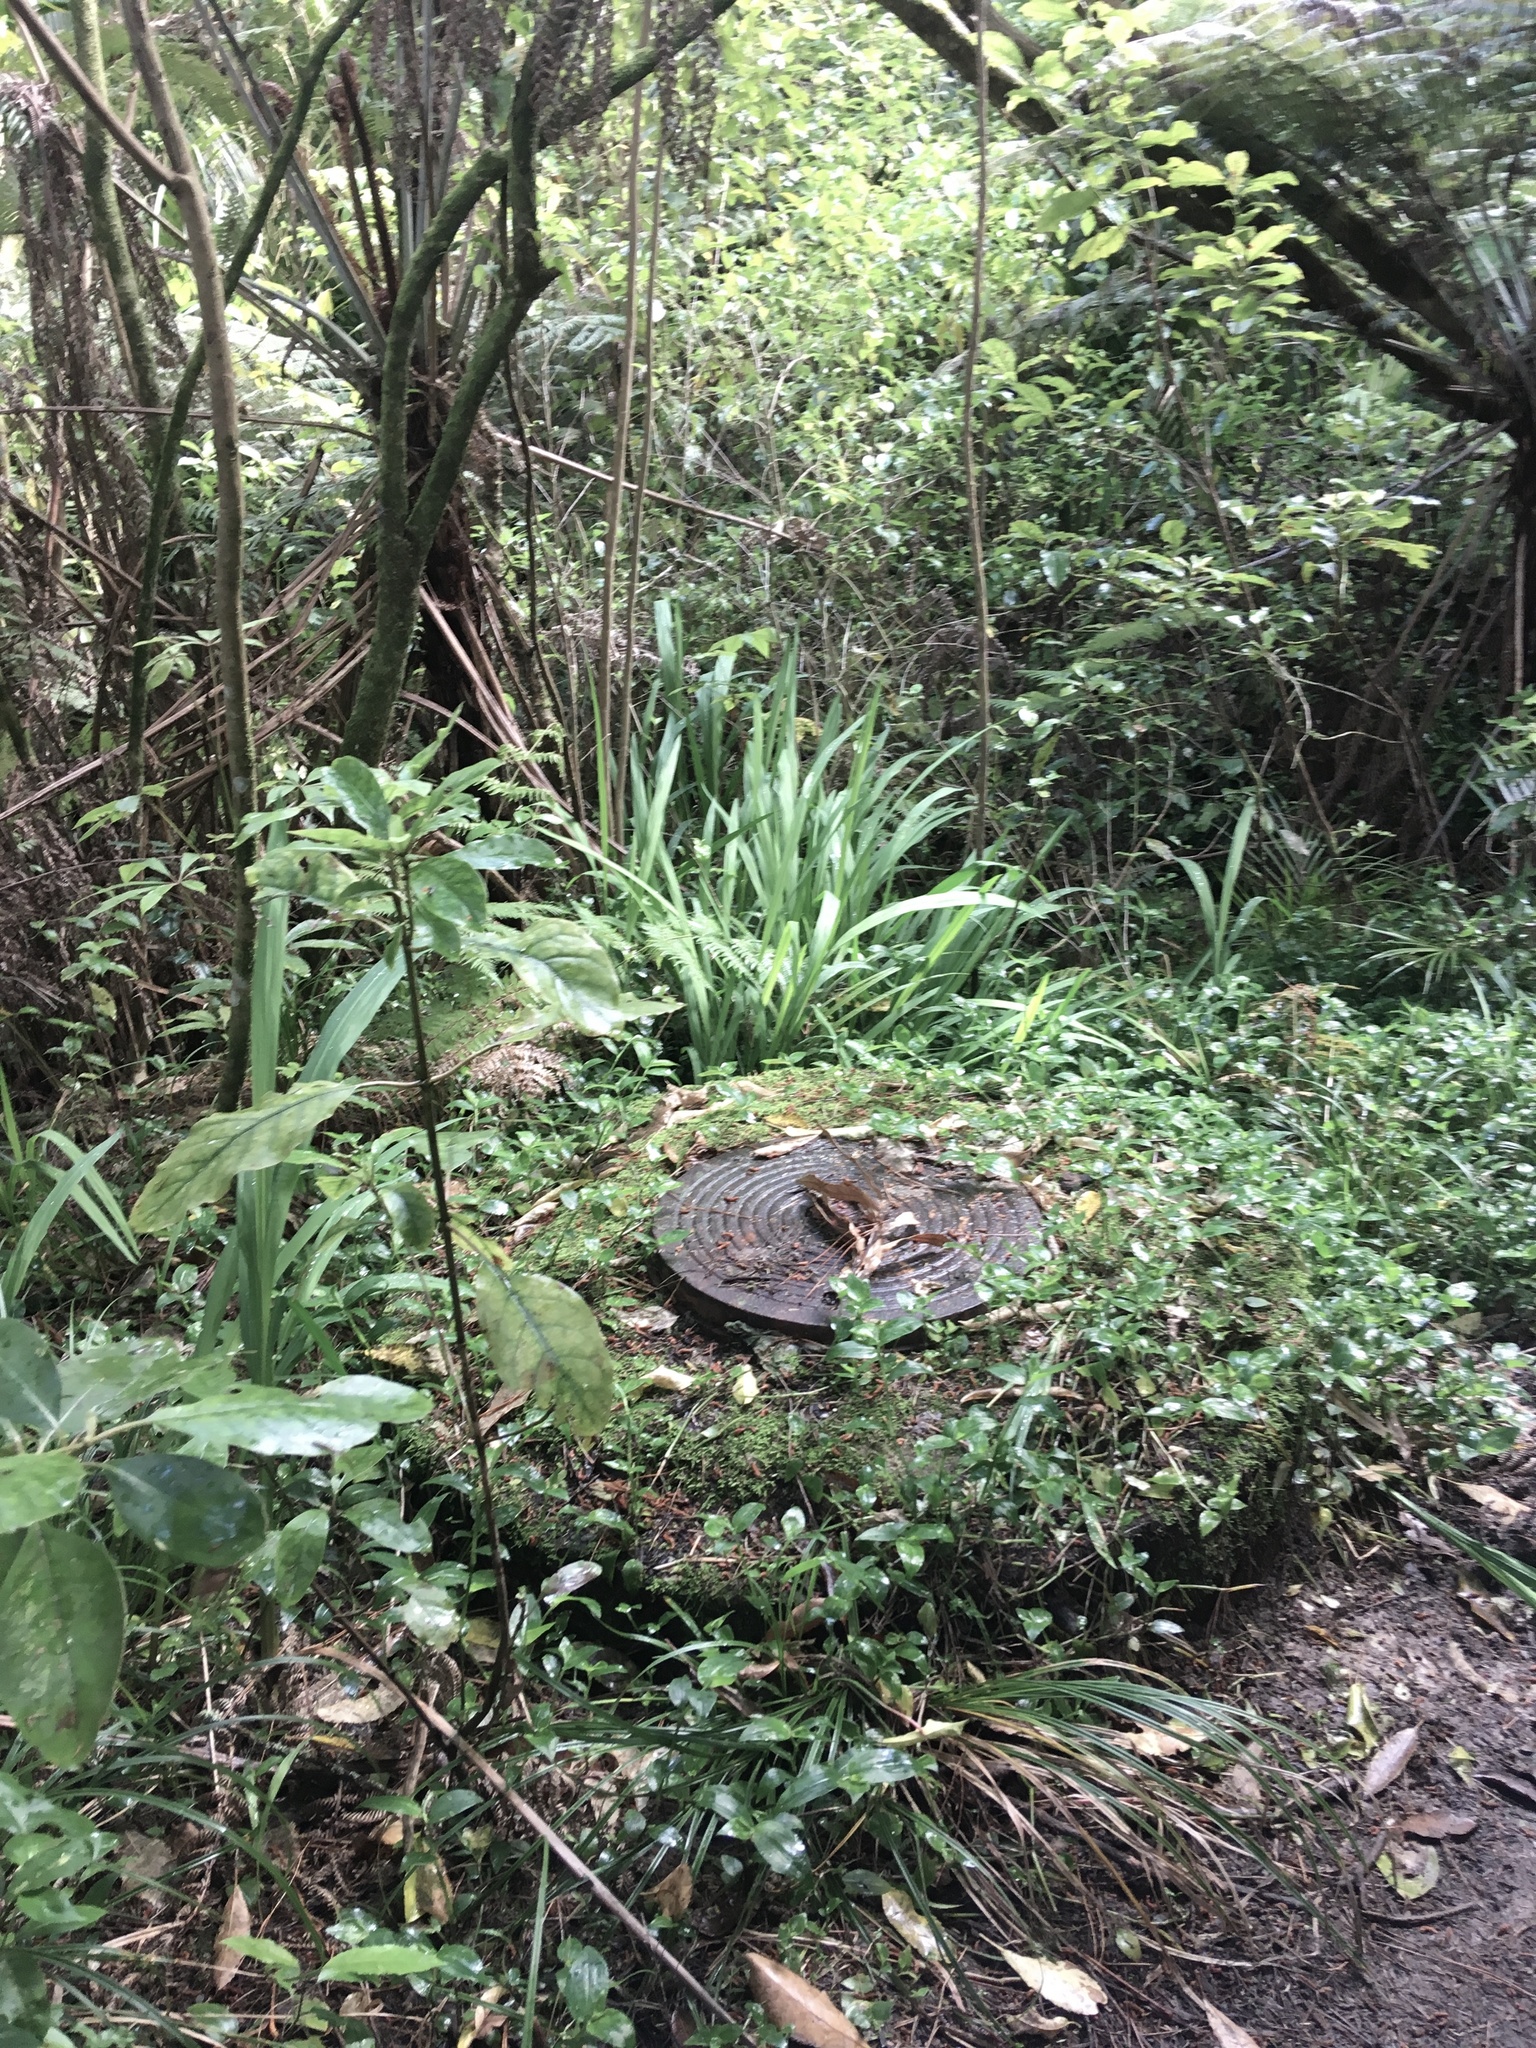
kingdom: Plantae
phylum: Tracheophyta
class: Liliopsida
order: Asparagales
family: Iridaceae
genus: Crocosmia
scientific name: Crocosmia crocosmiiflora
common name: Montbretia
